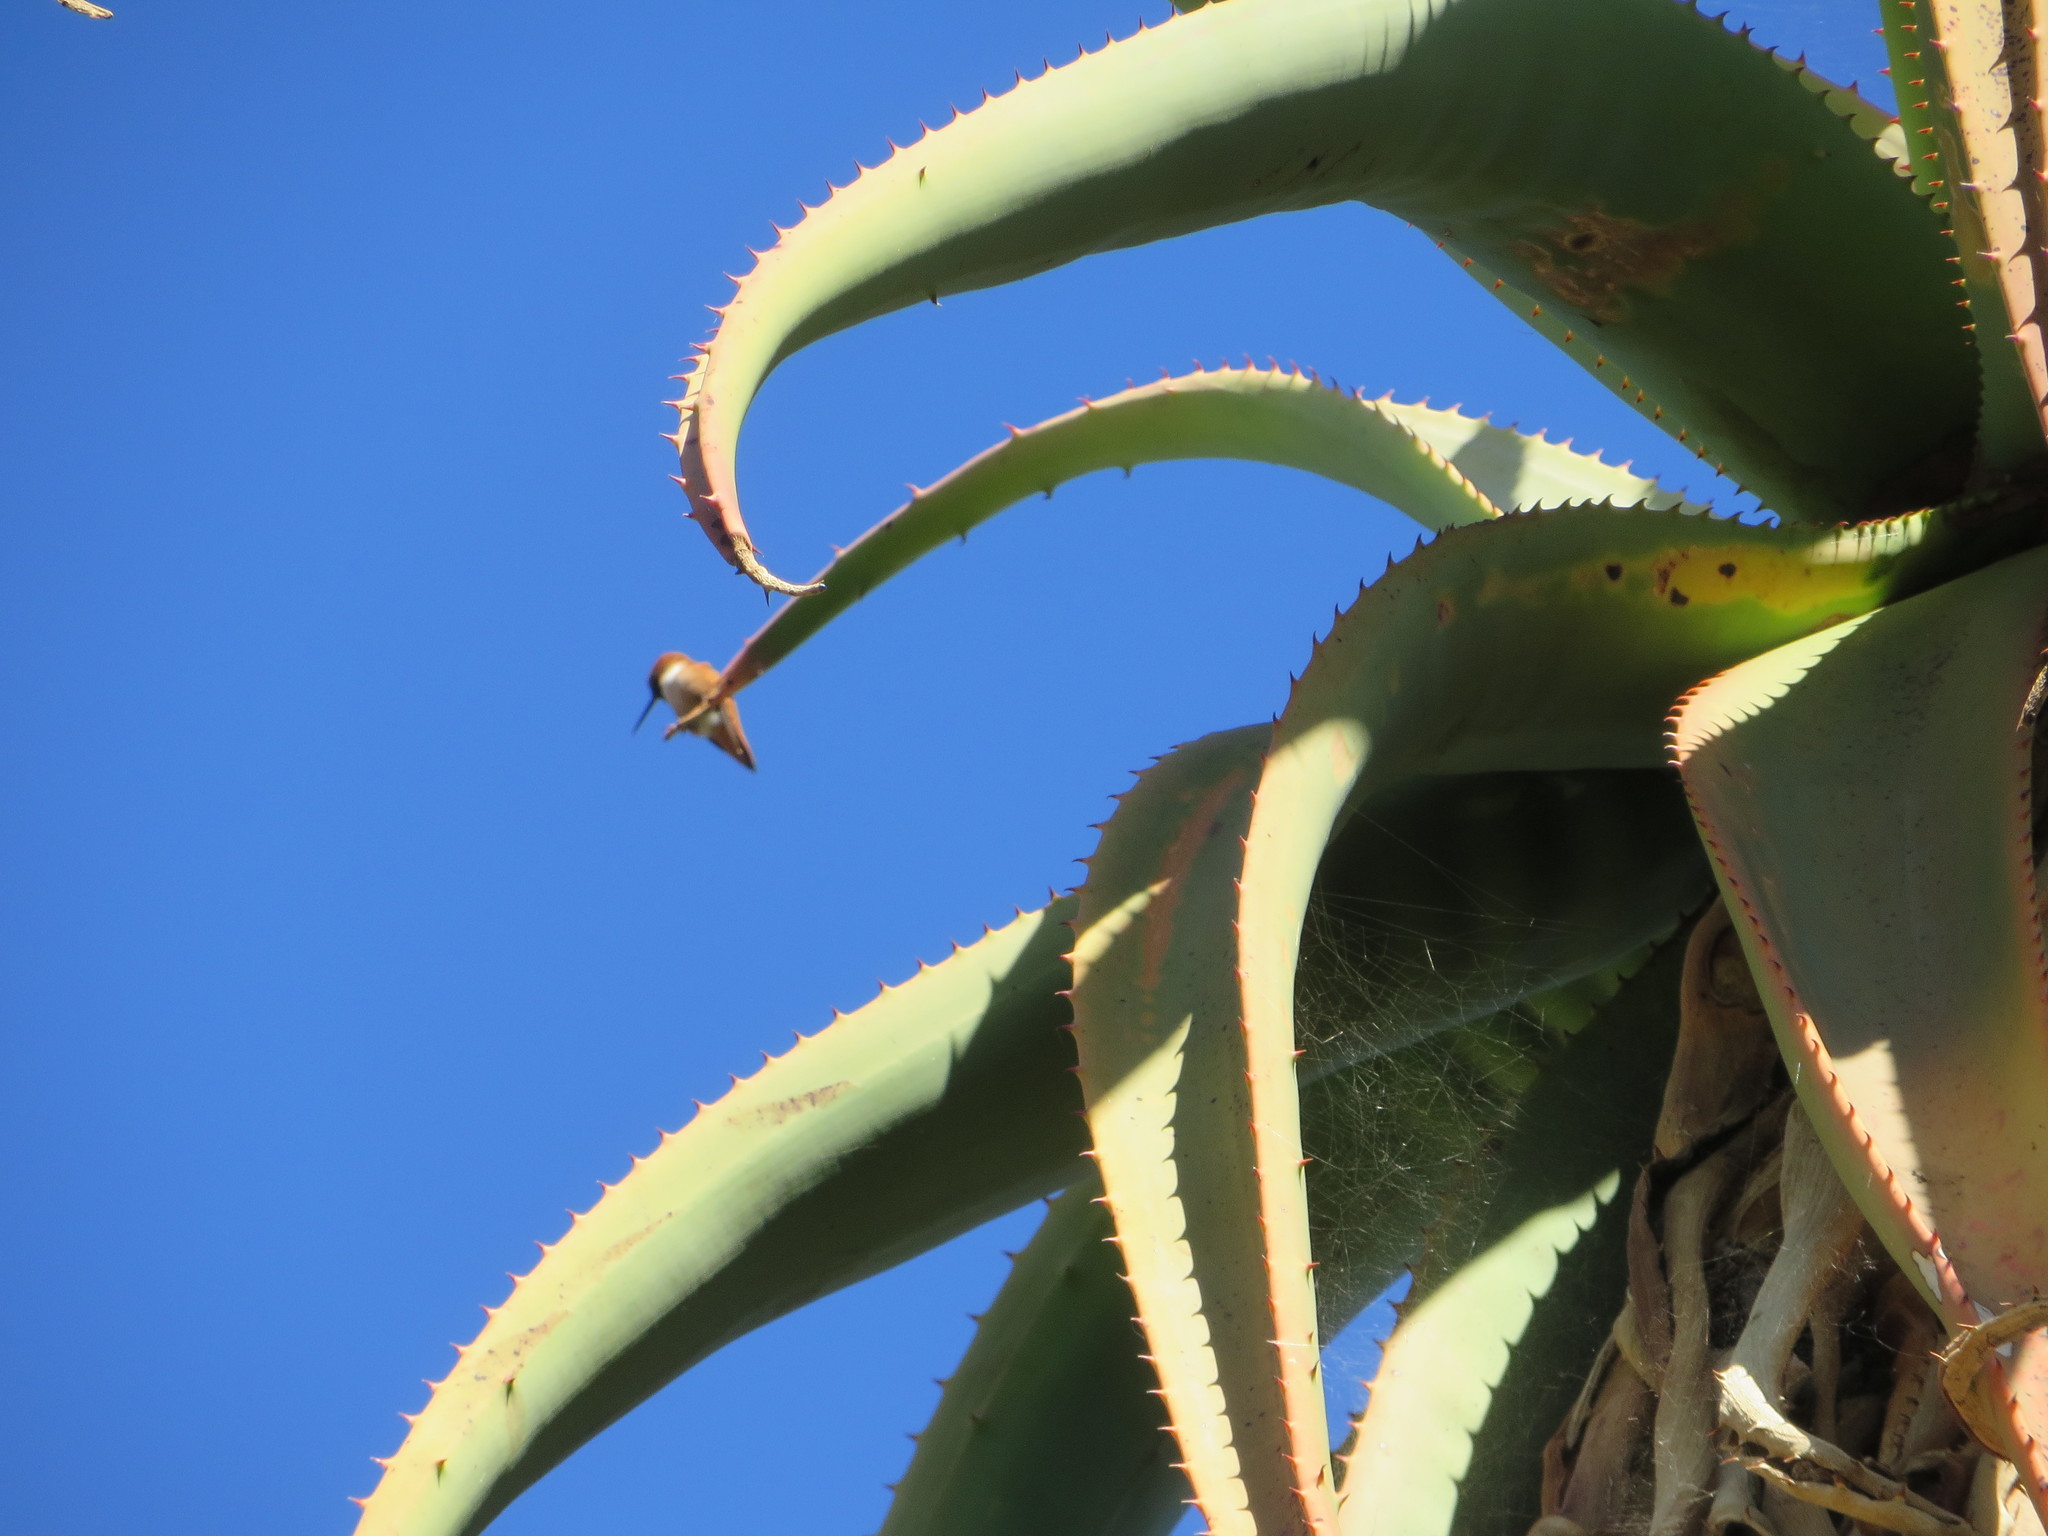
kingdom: Animalia
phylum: Chordata
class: Aves
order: Apodiformes
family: Trochilidae
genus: Selasphorus
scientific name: Selasphorus sasin
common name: Allen's hummingbird
